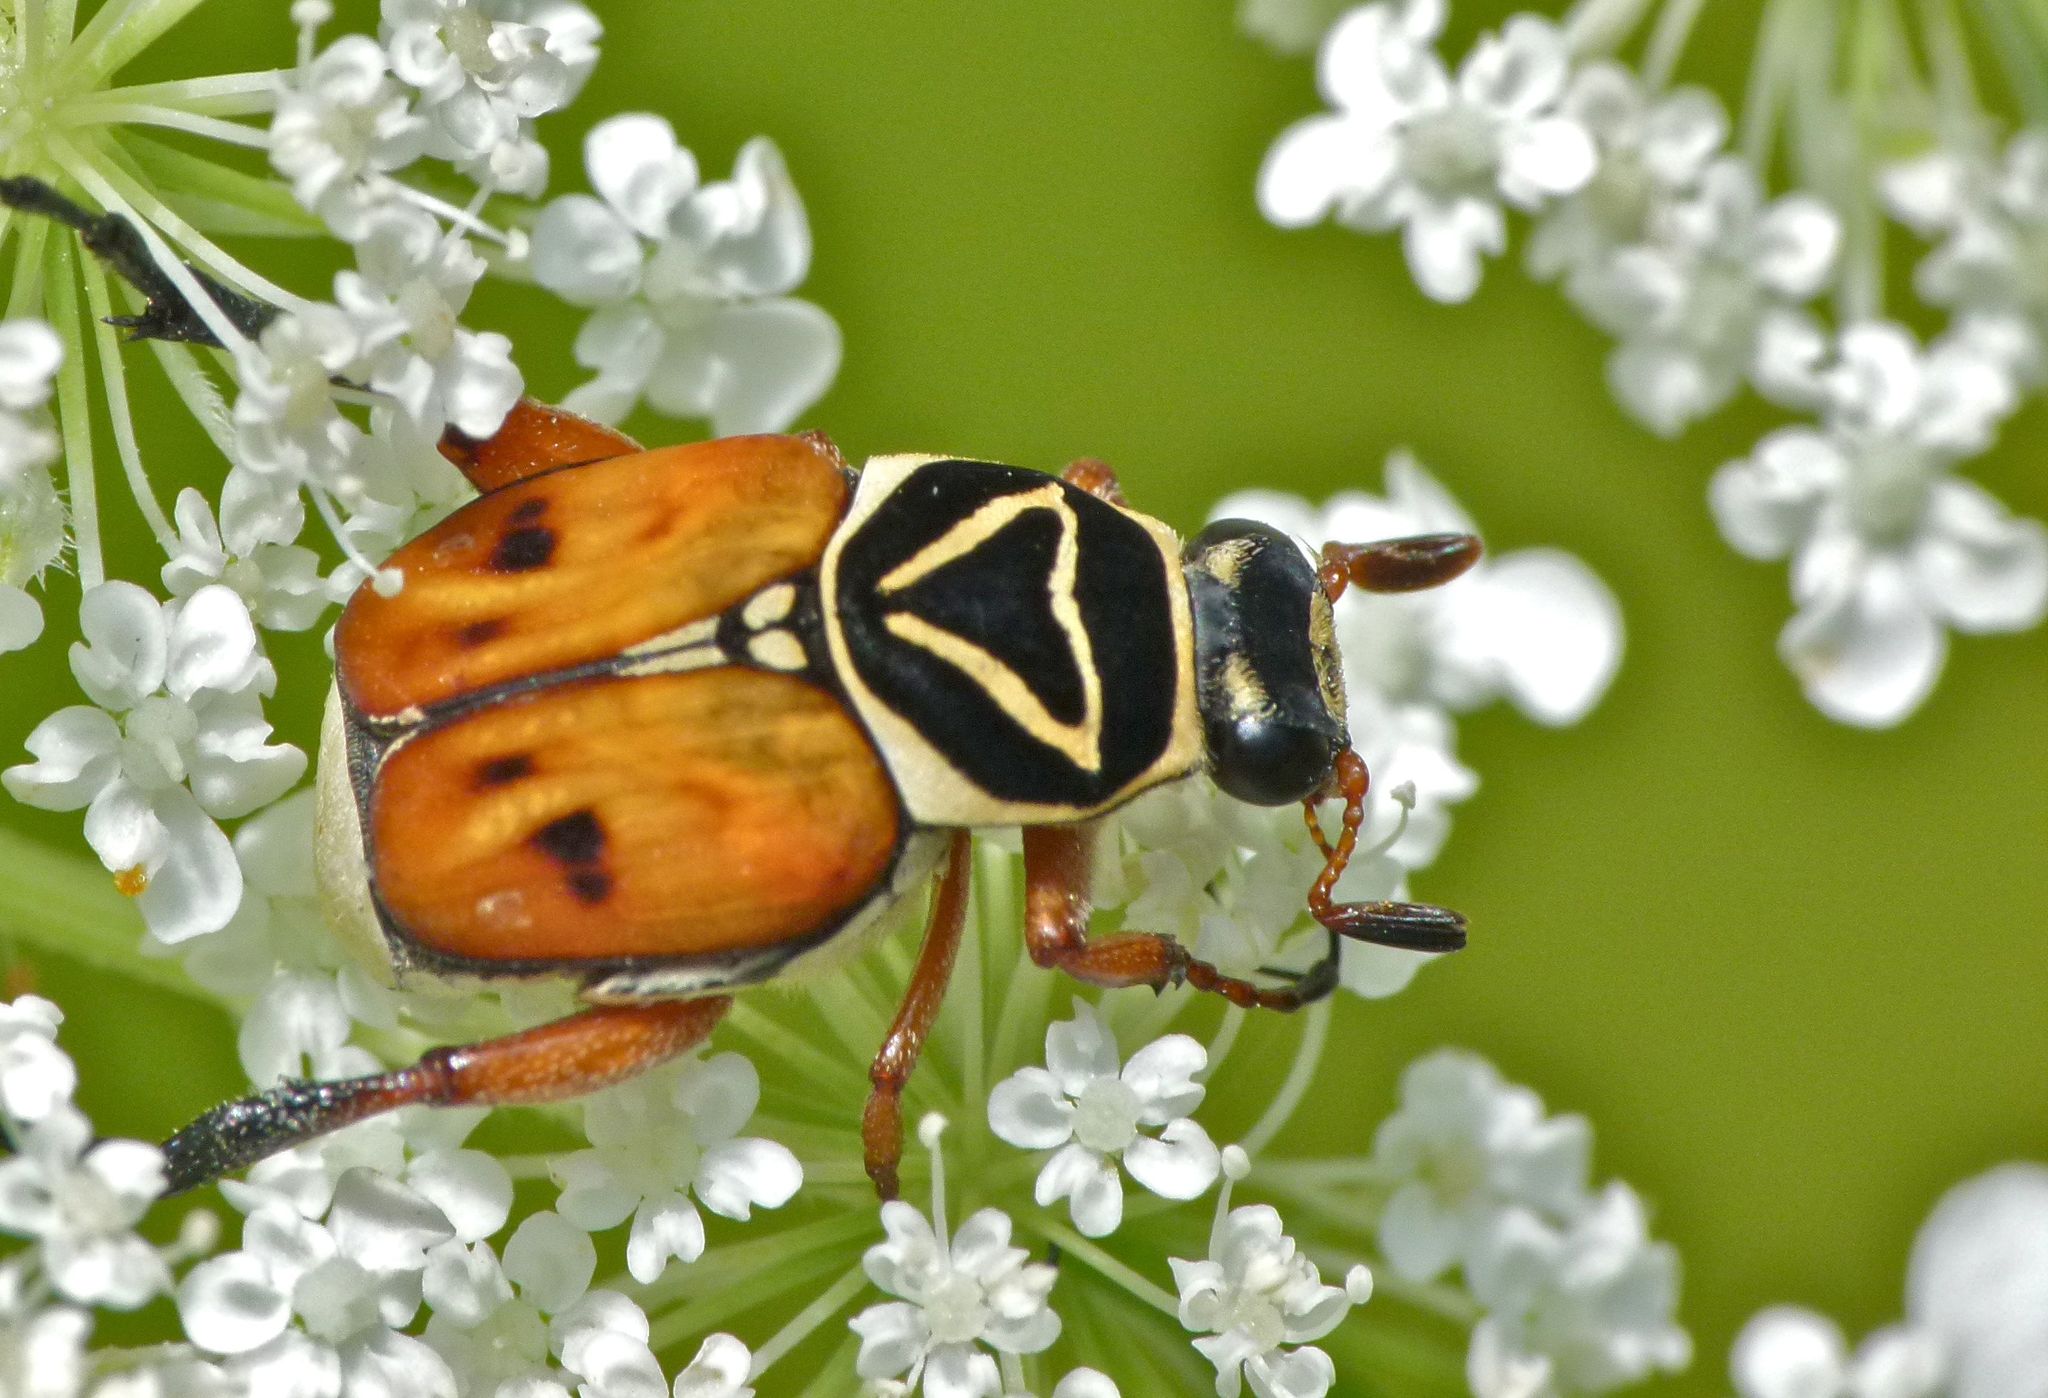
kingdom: Animalia
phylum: Arthropoda
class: Insecta
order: Coleoptera
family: Scarabaeidae
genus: Trigonopeltastes
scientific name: Trigonopeltastes delta
